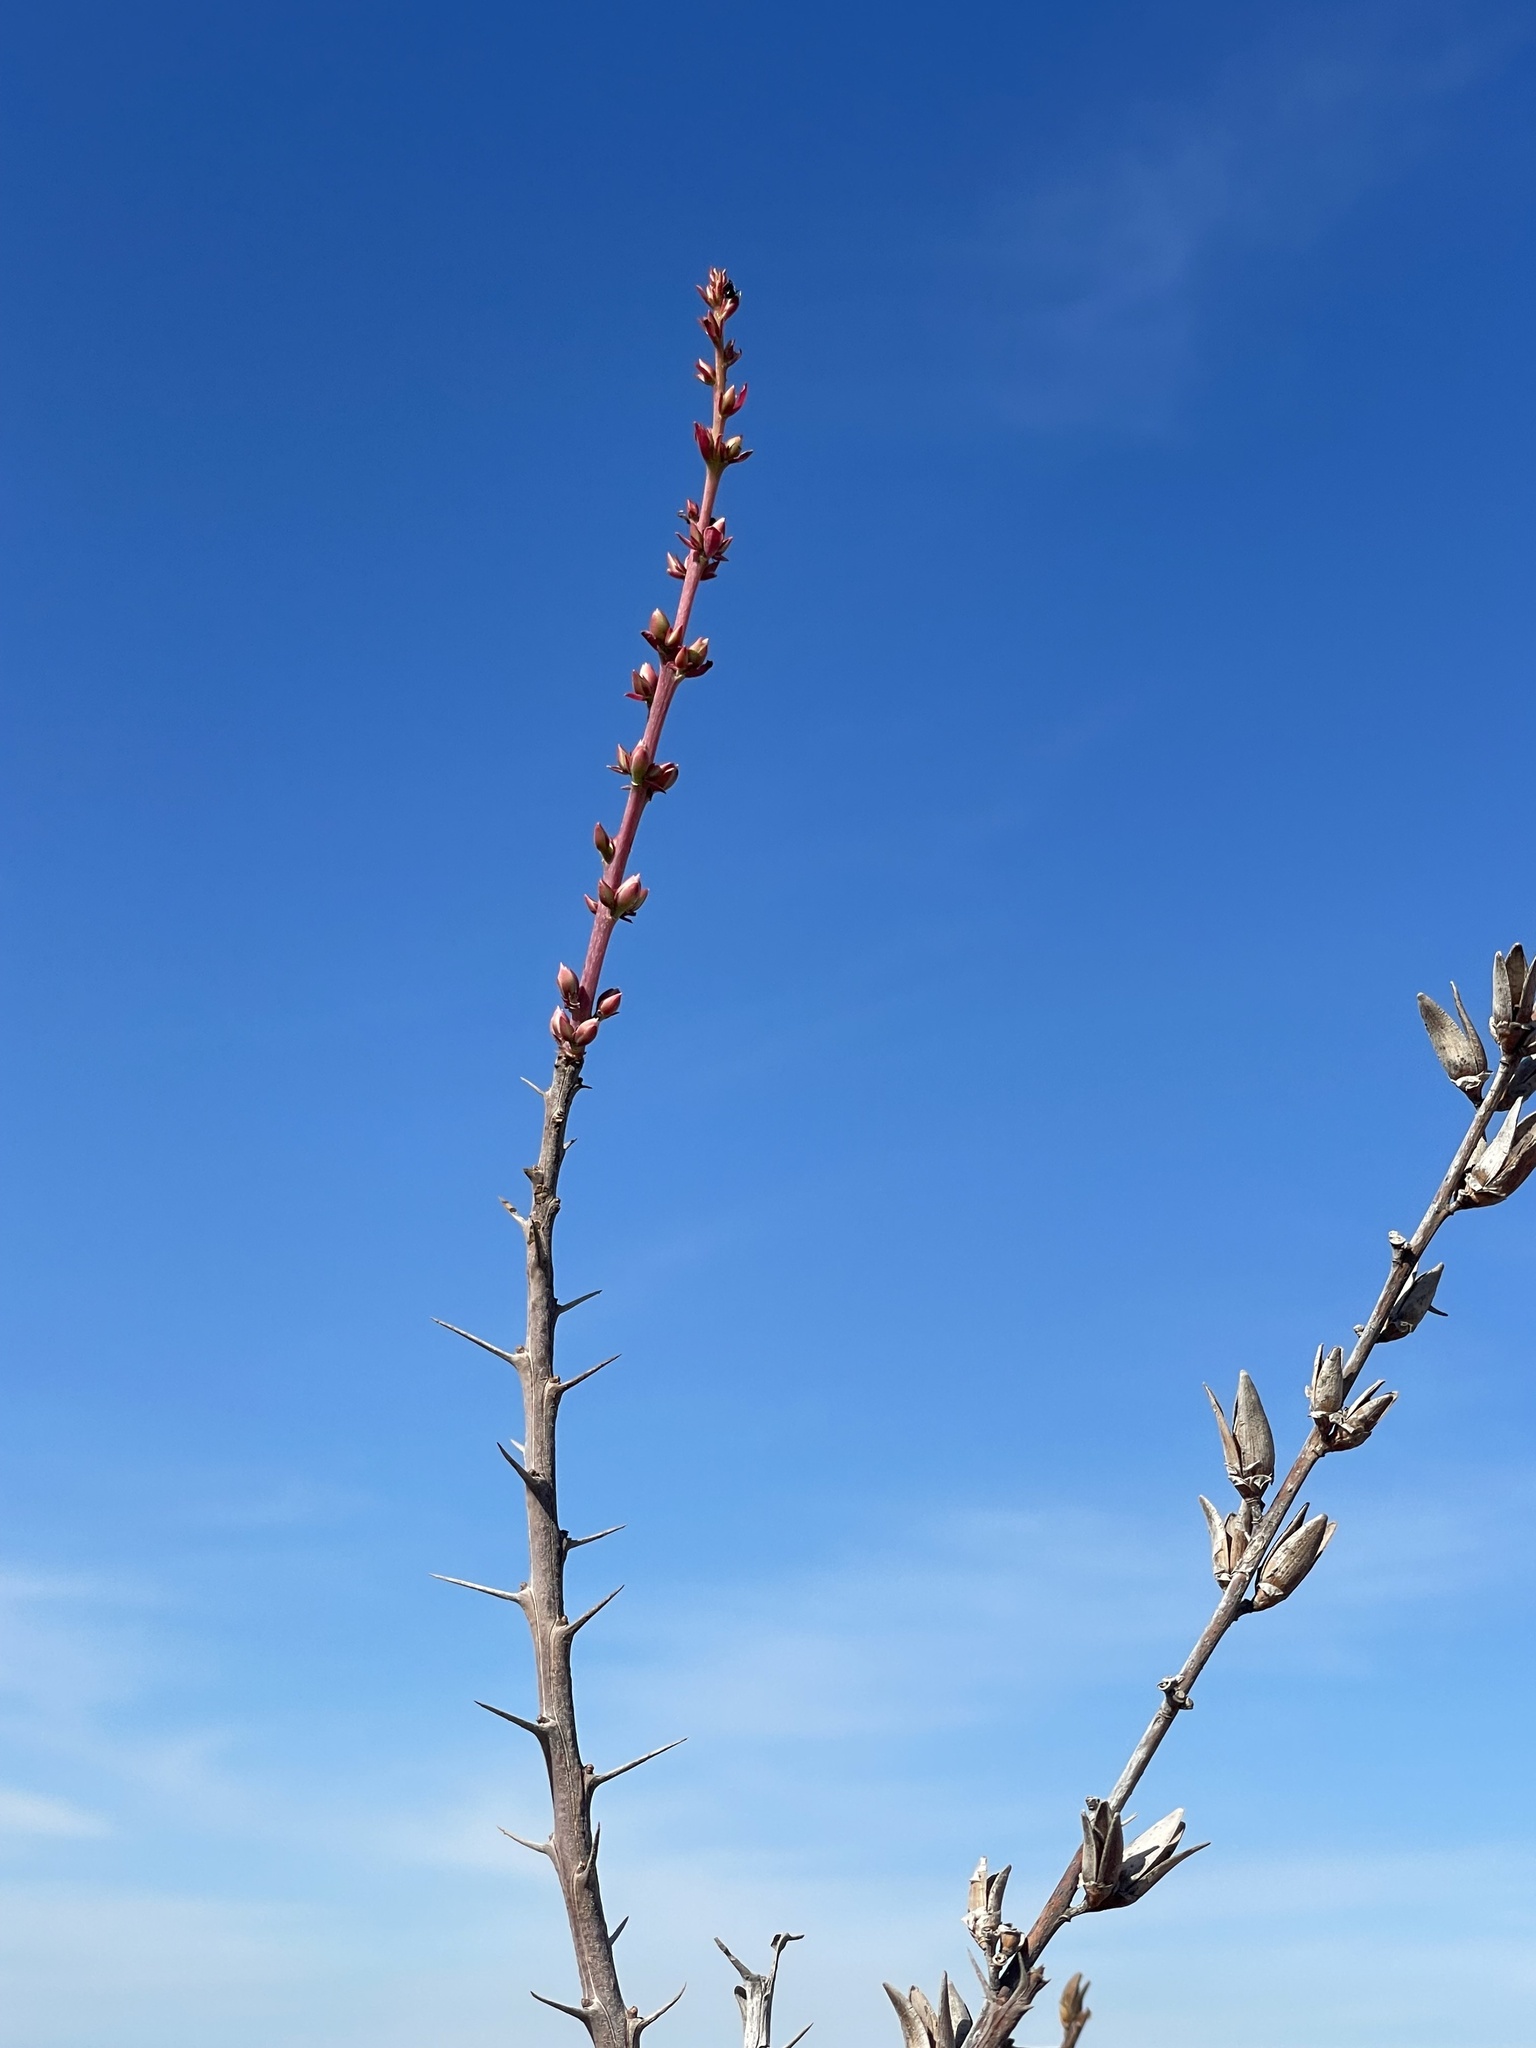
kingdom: Plantae
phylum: Tracheophyta
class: Magnoliopsida
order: Ericales
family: Fouquieriaceae
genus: Fouquieria
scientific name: Fouquieria burragei
